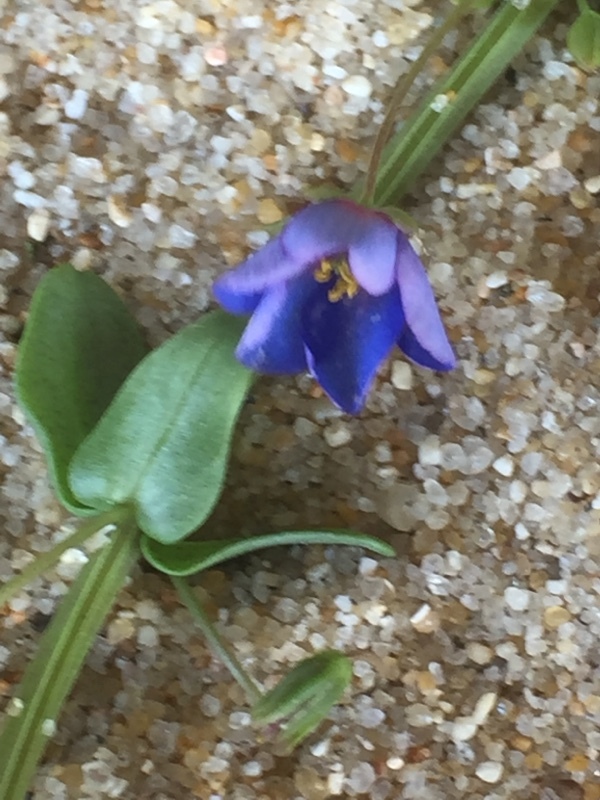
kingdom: Plantae
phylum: Tracheophyta
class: Magnoliopsida
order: Ericales
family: Primulaceae
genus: Lysimachia
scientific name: Lysimachia monelli
